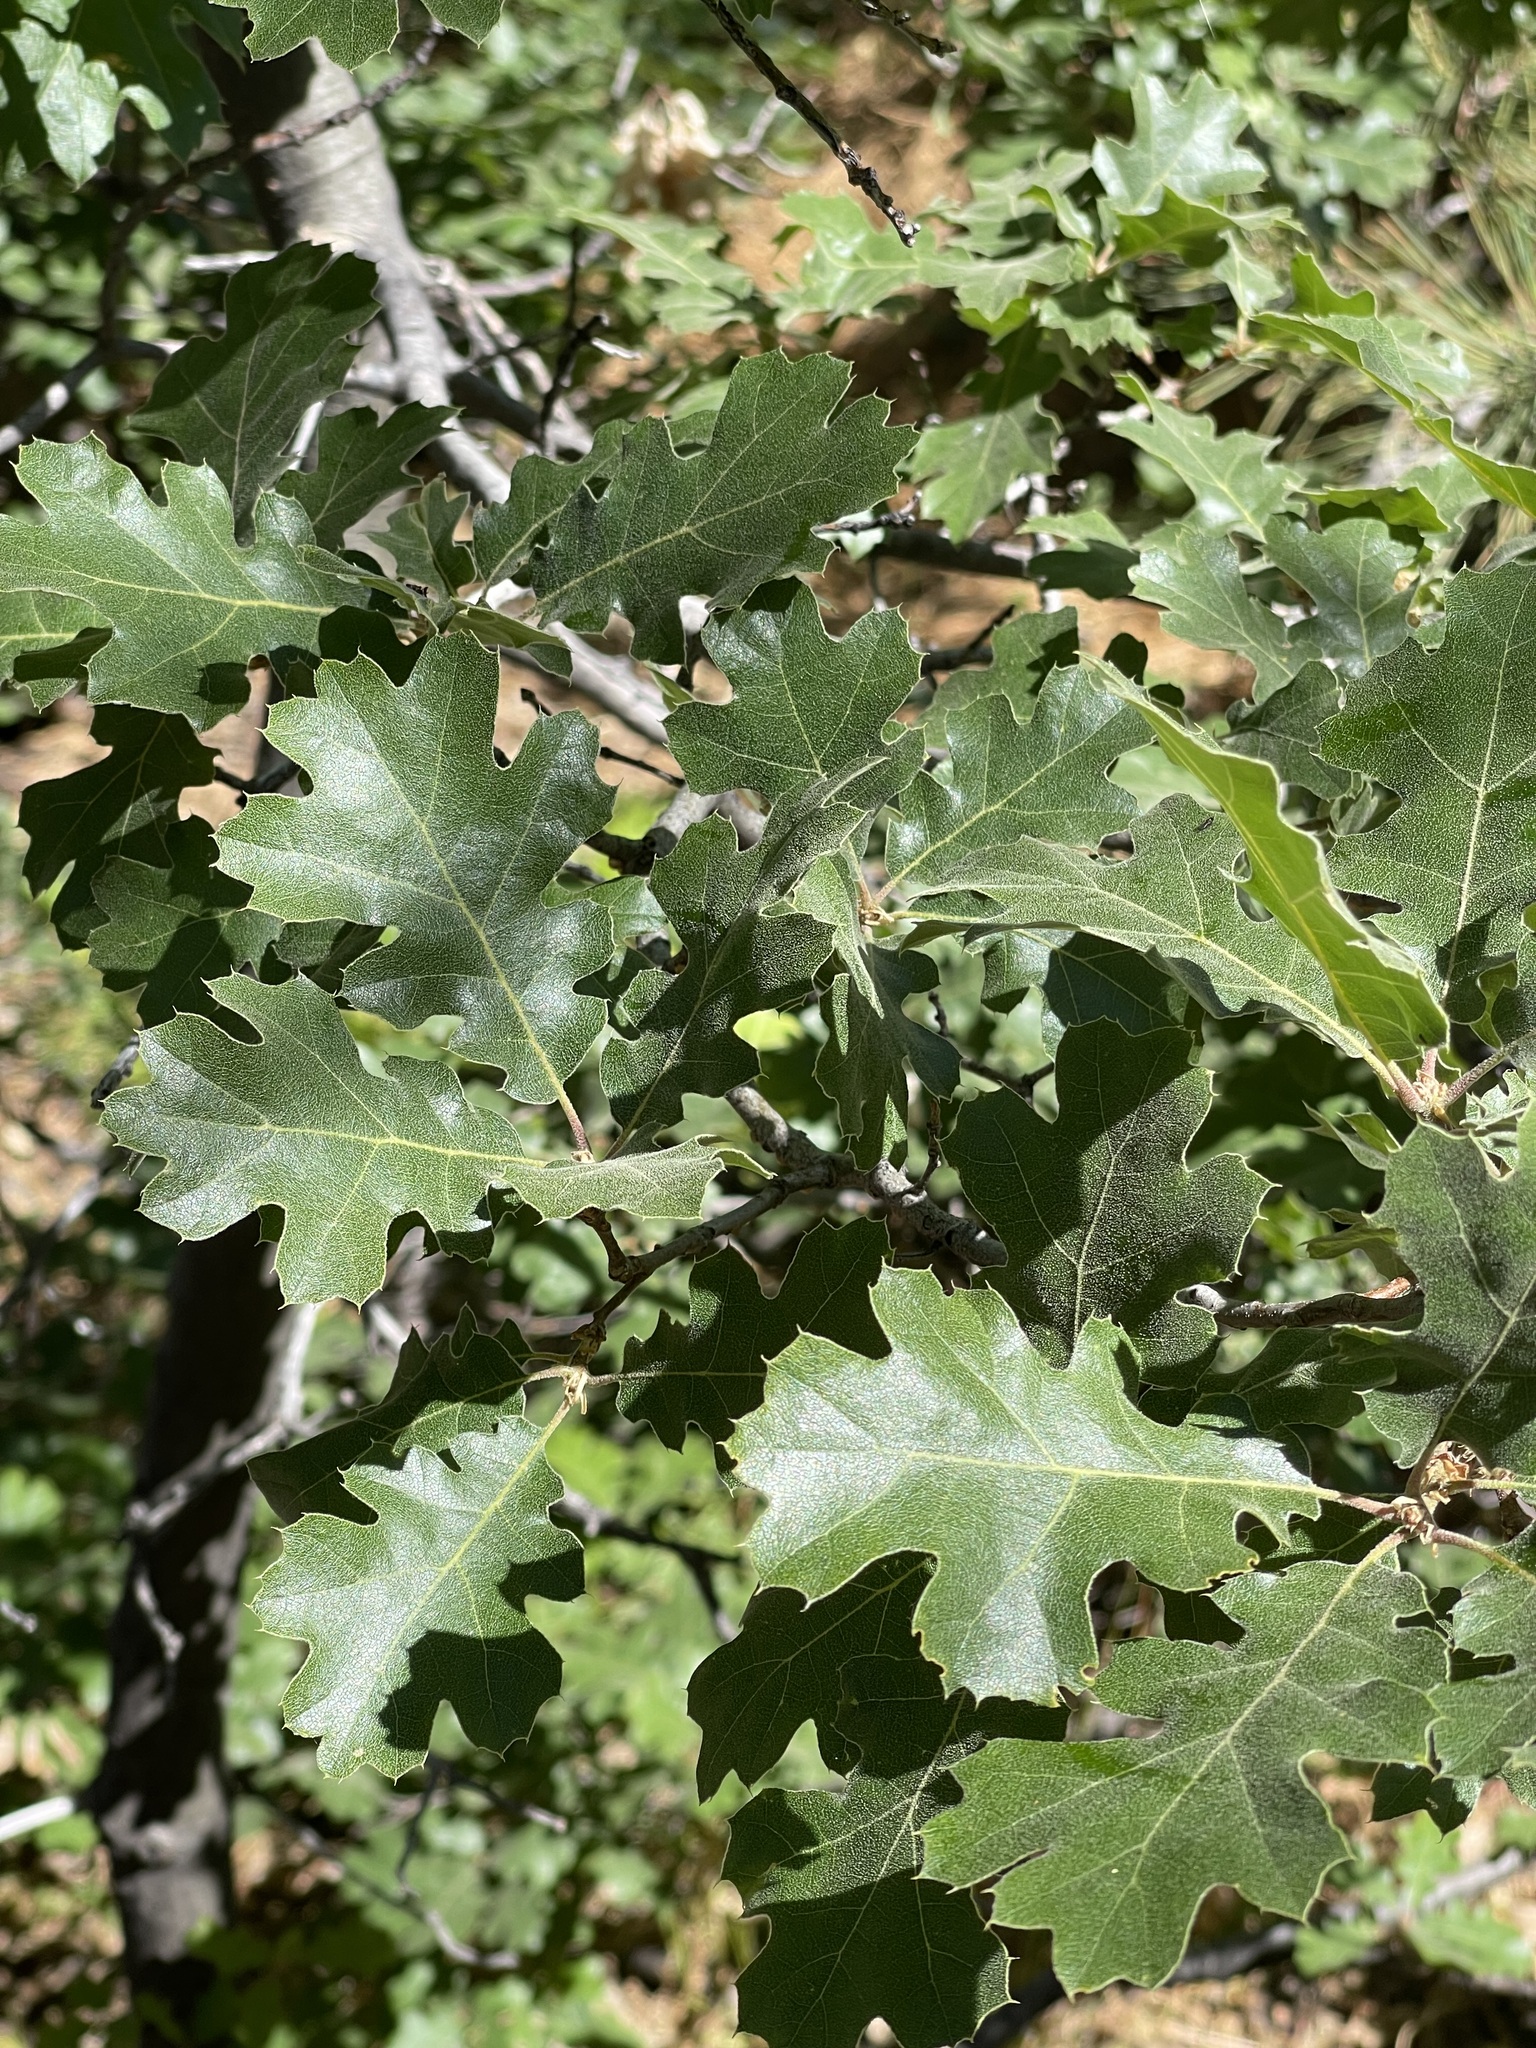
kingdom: Plantae
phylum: Tracheophyta
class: Magnoliopsida
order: Fagales
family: Fagaceae
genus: Quercus
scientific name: Quercus kelloggii
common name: California black oak
